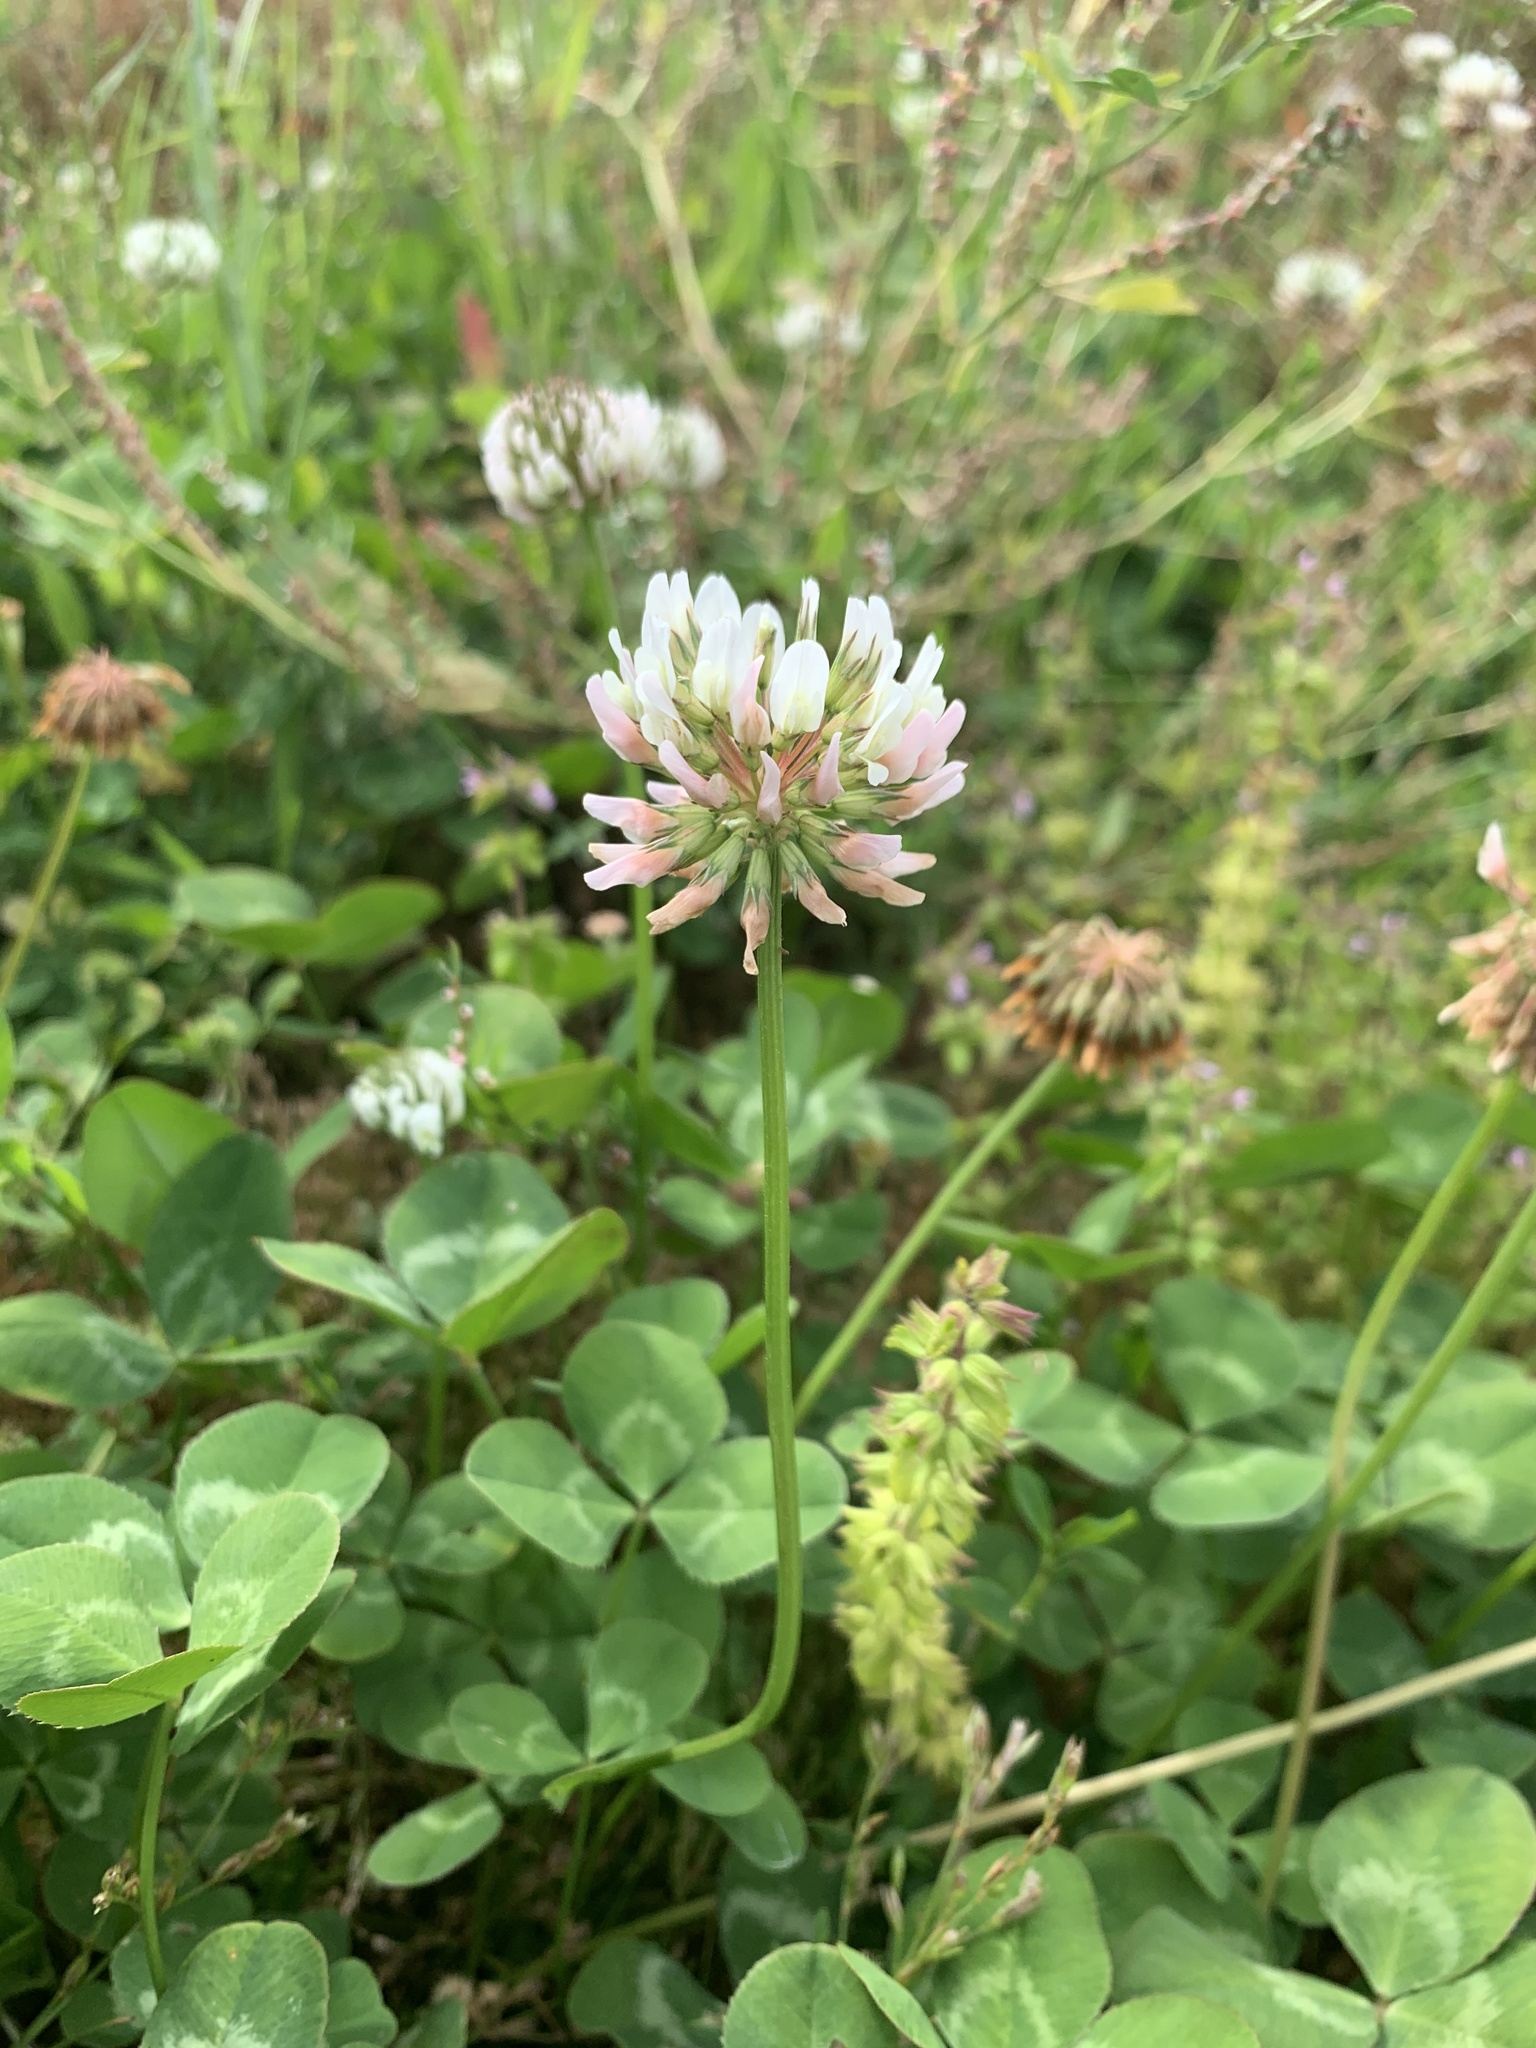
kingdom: Plantae
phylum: Tracheophyta
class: Magnoliopsida
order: Fabales
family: Fabaceae
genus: Trifolium
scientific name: Trifolium repens
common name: White clover
